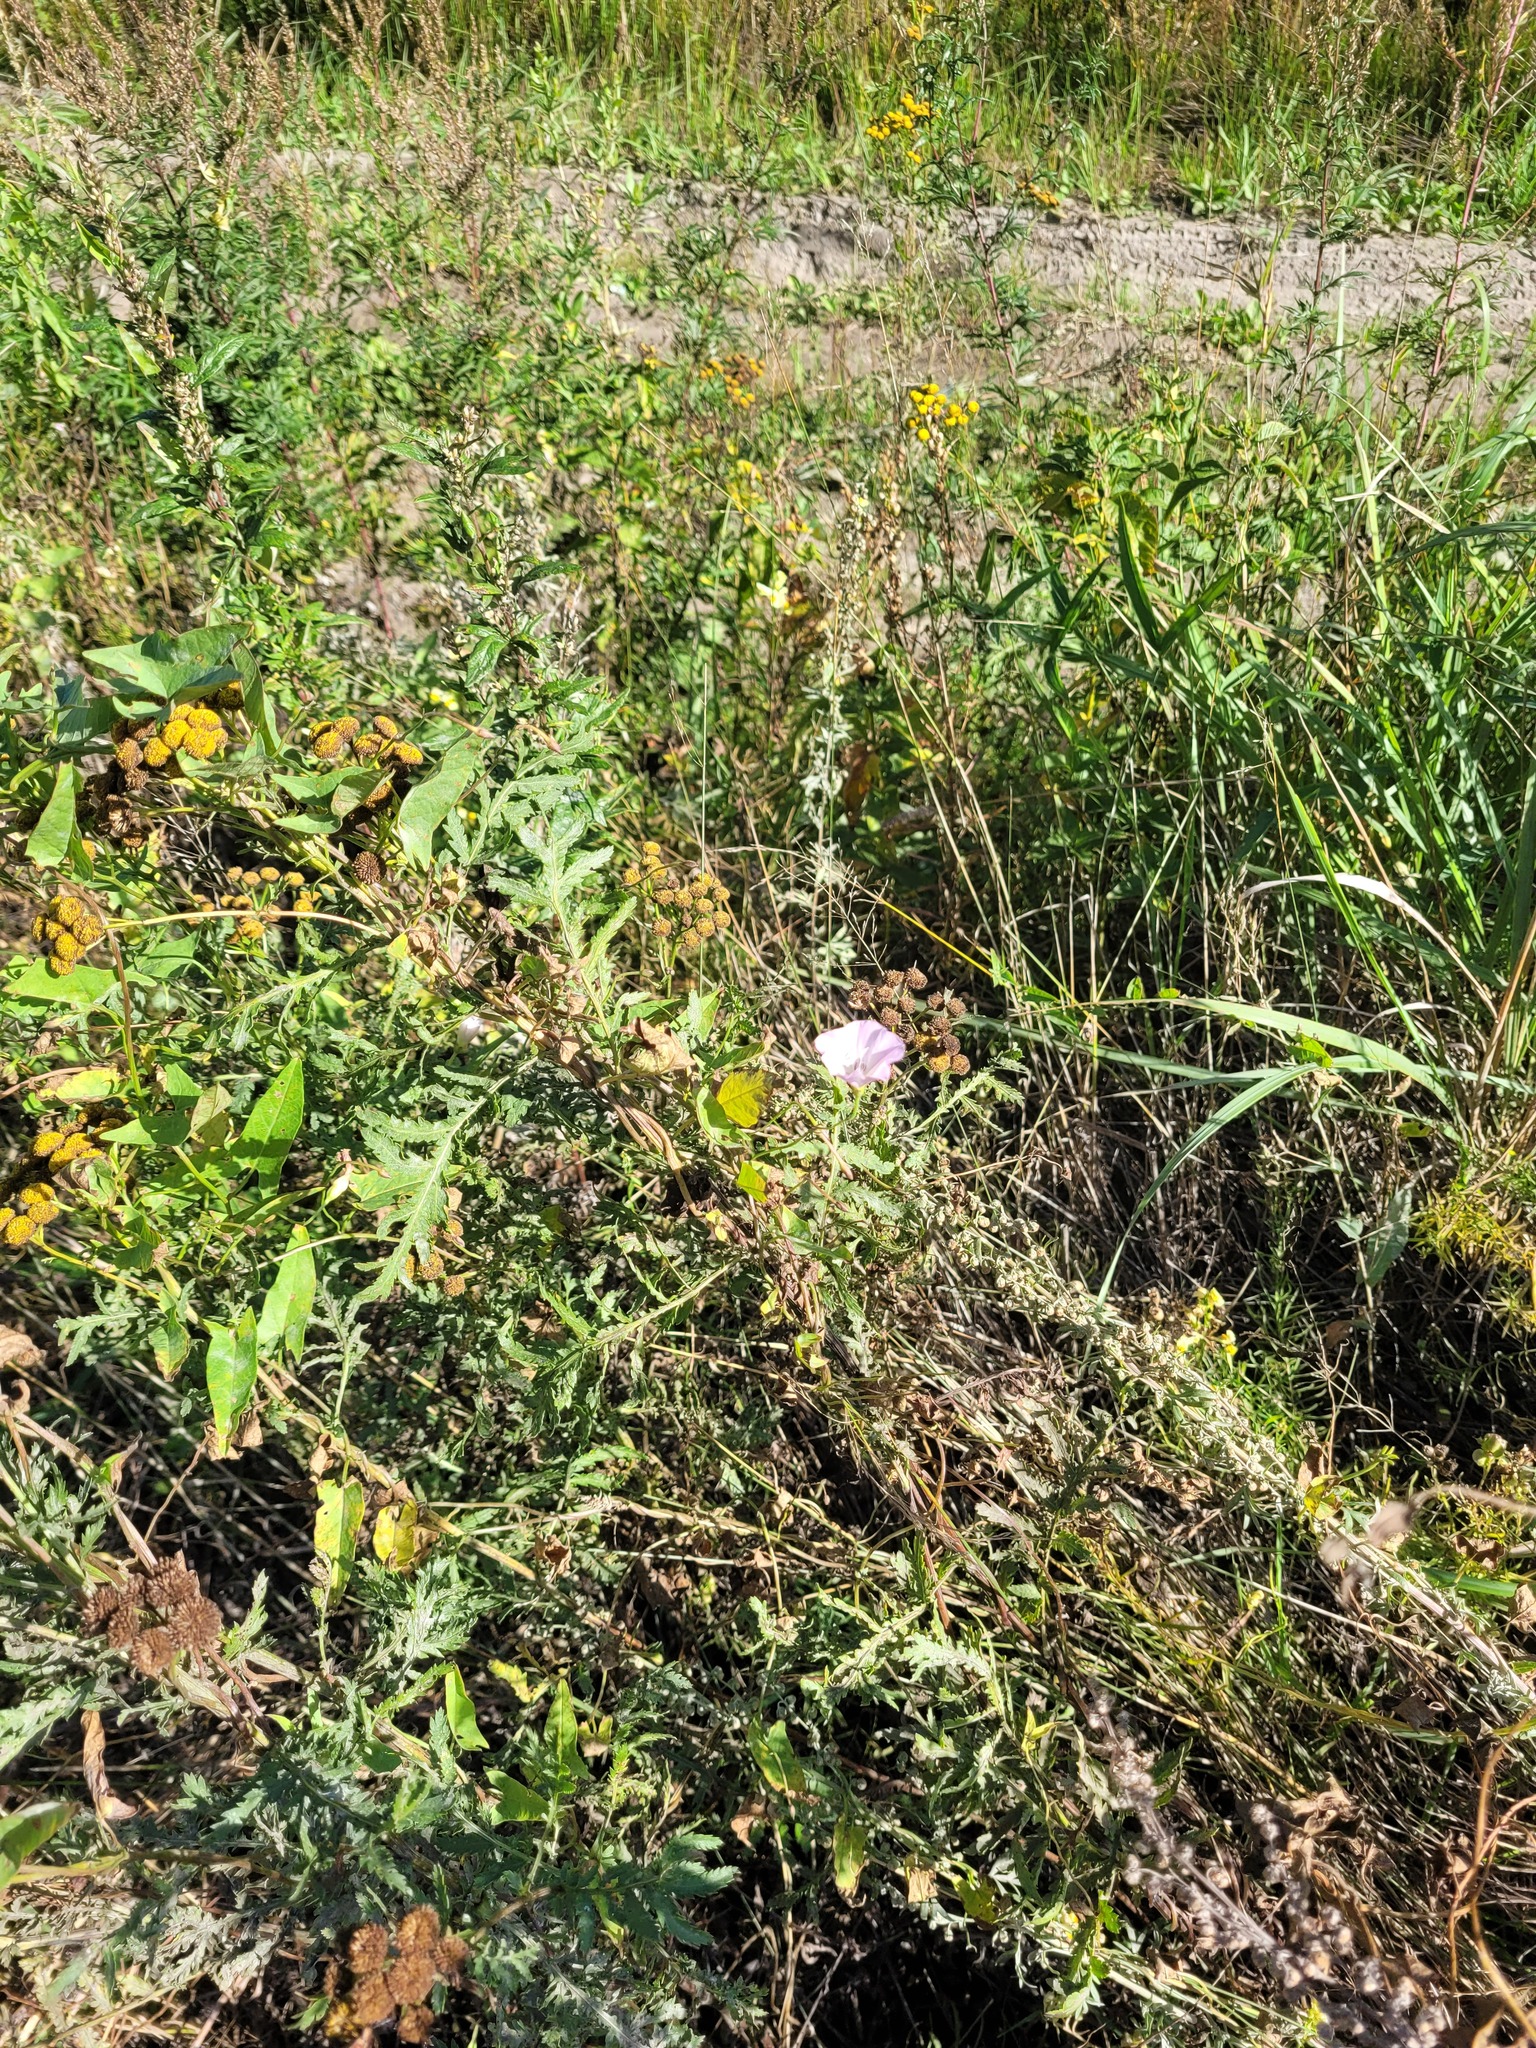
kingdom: Plantae
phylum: Tracheophyta
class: Magnoliopsida
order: Solanales
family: Convolvulaceae
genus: Convolvulus
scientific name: Convolvulus arvensis
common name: Field bindweed
